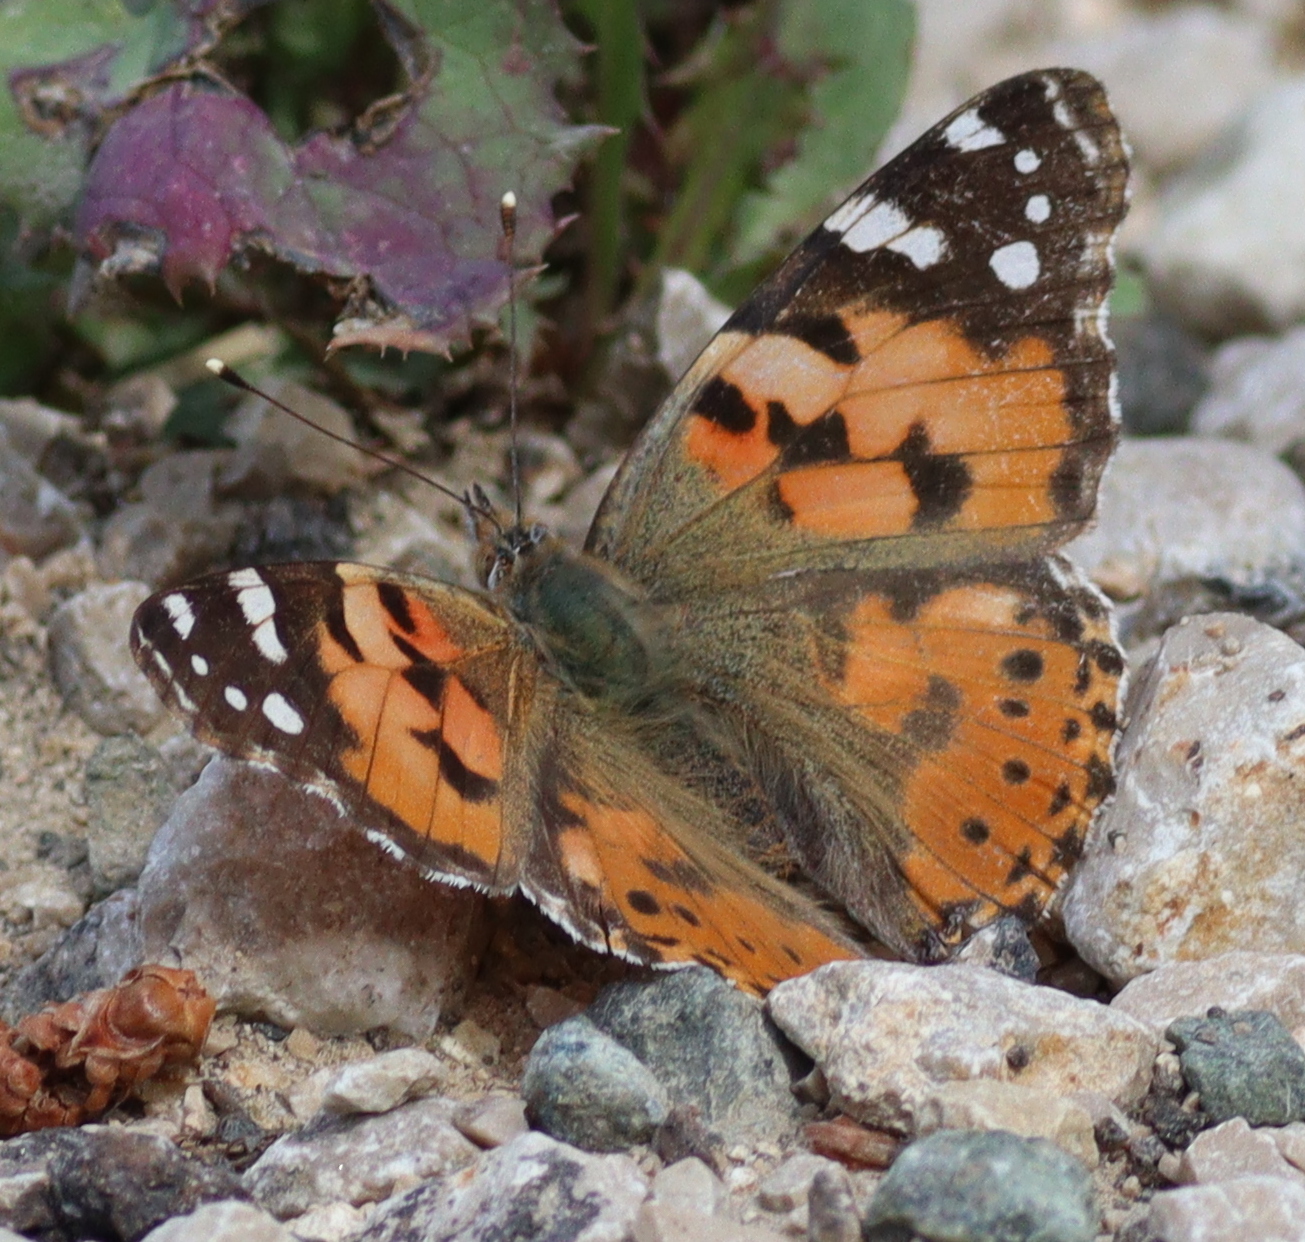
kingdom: Animalia
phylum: Arthropoda
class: Insecta
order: Lepidoptera
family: Nymphalidae
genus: Vanessa
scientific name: Vanessa cardui
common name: Painted lady
